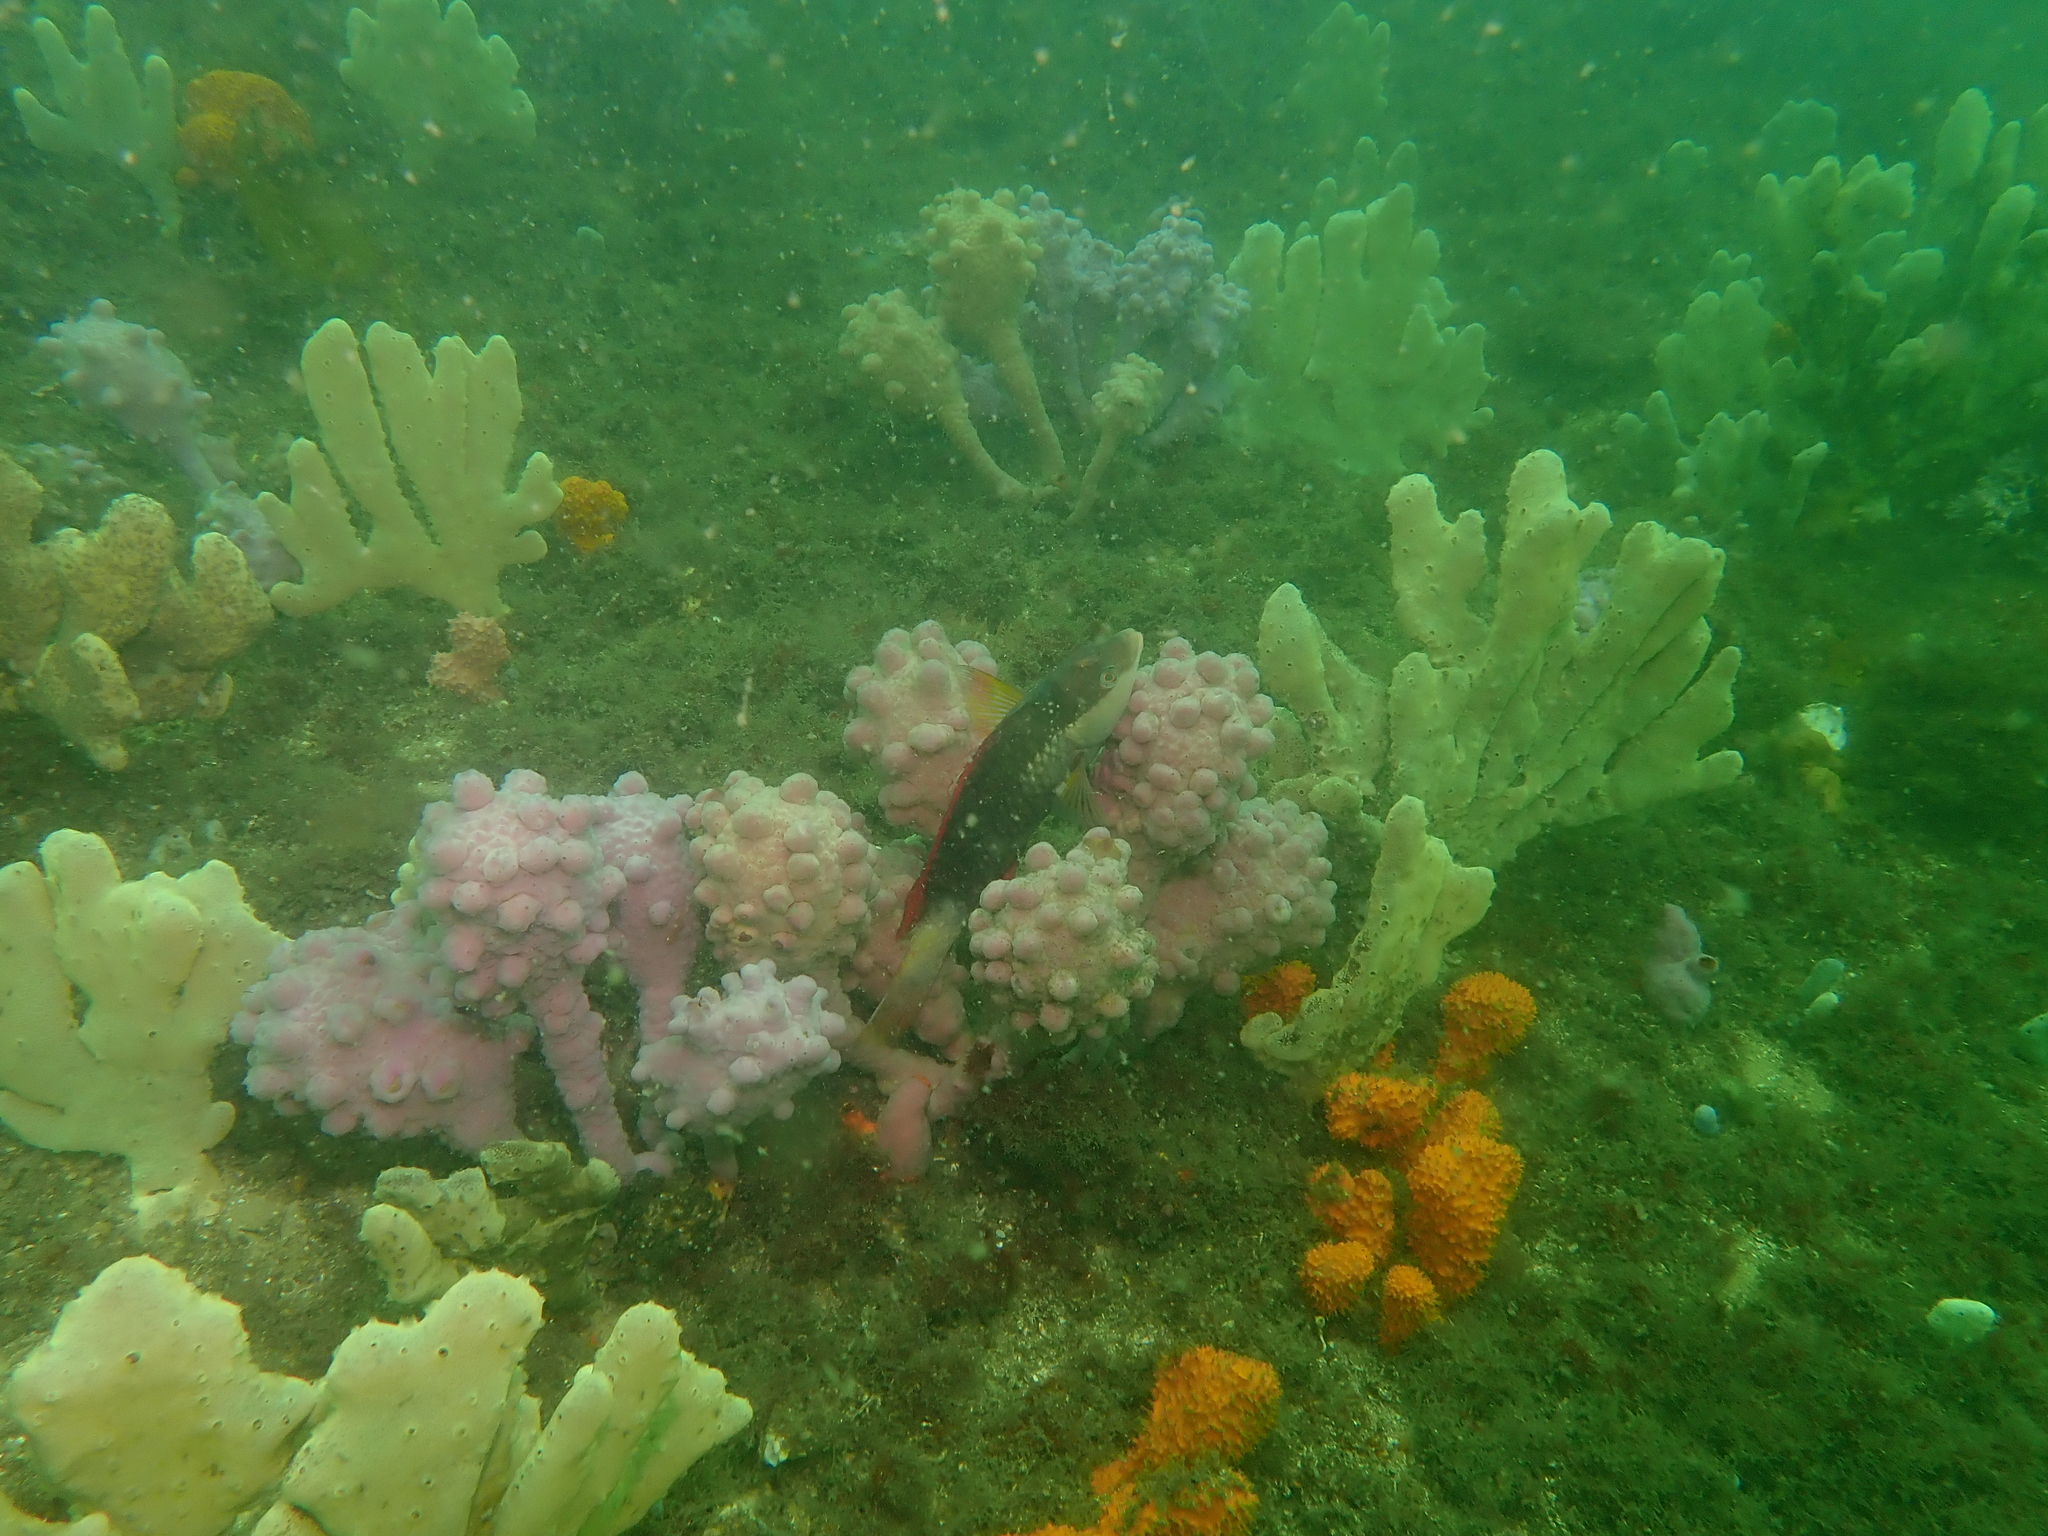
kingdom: Animalia
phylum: Chordata
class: Ascidiacea
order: Stolidobranchia
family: Pyuridae
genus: Pyura
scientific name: Pyura spinifera
